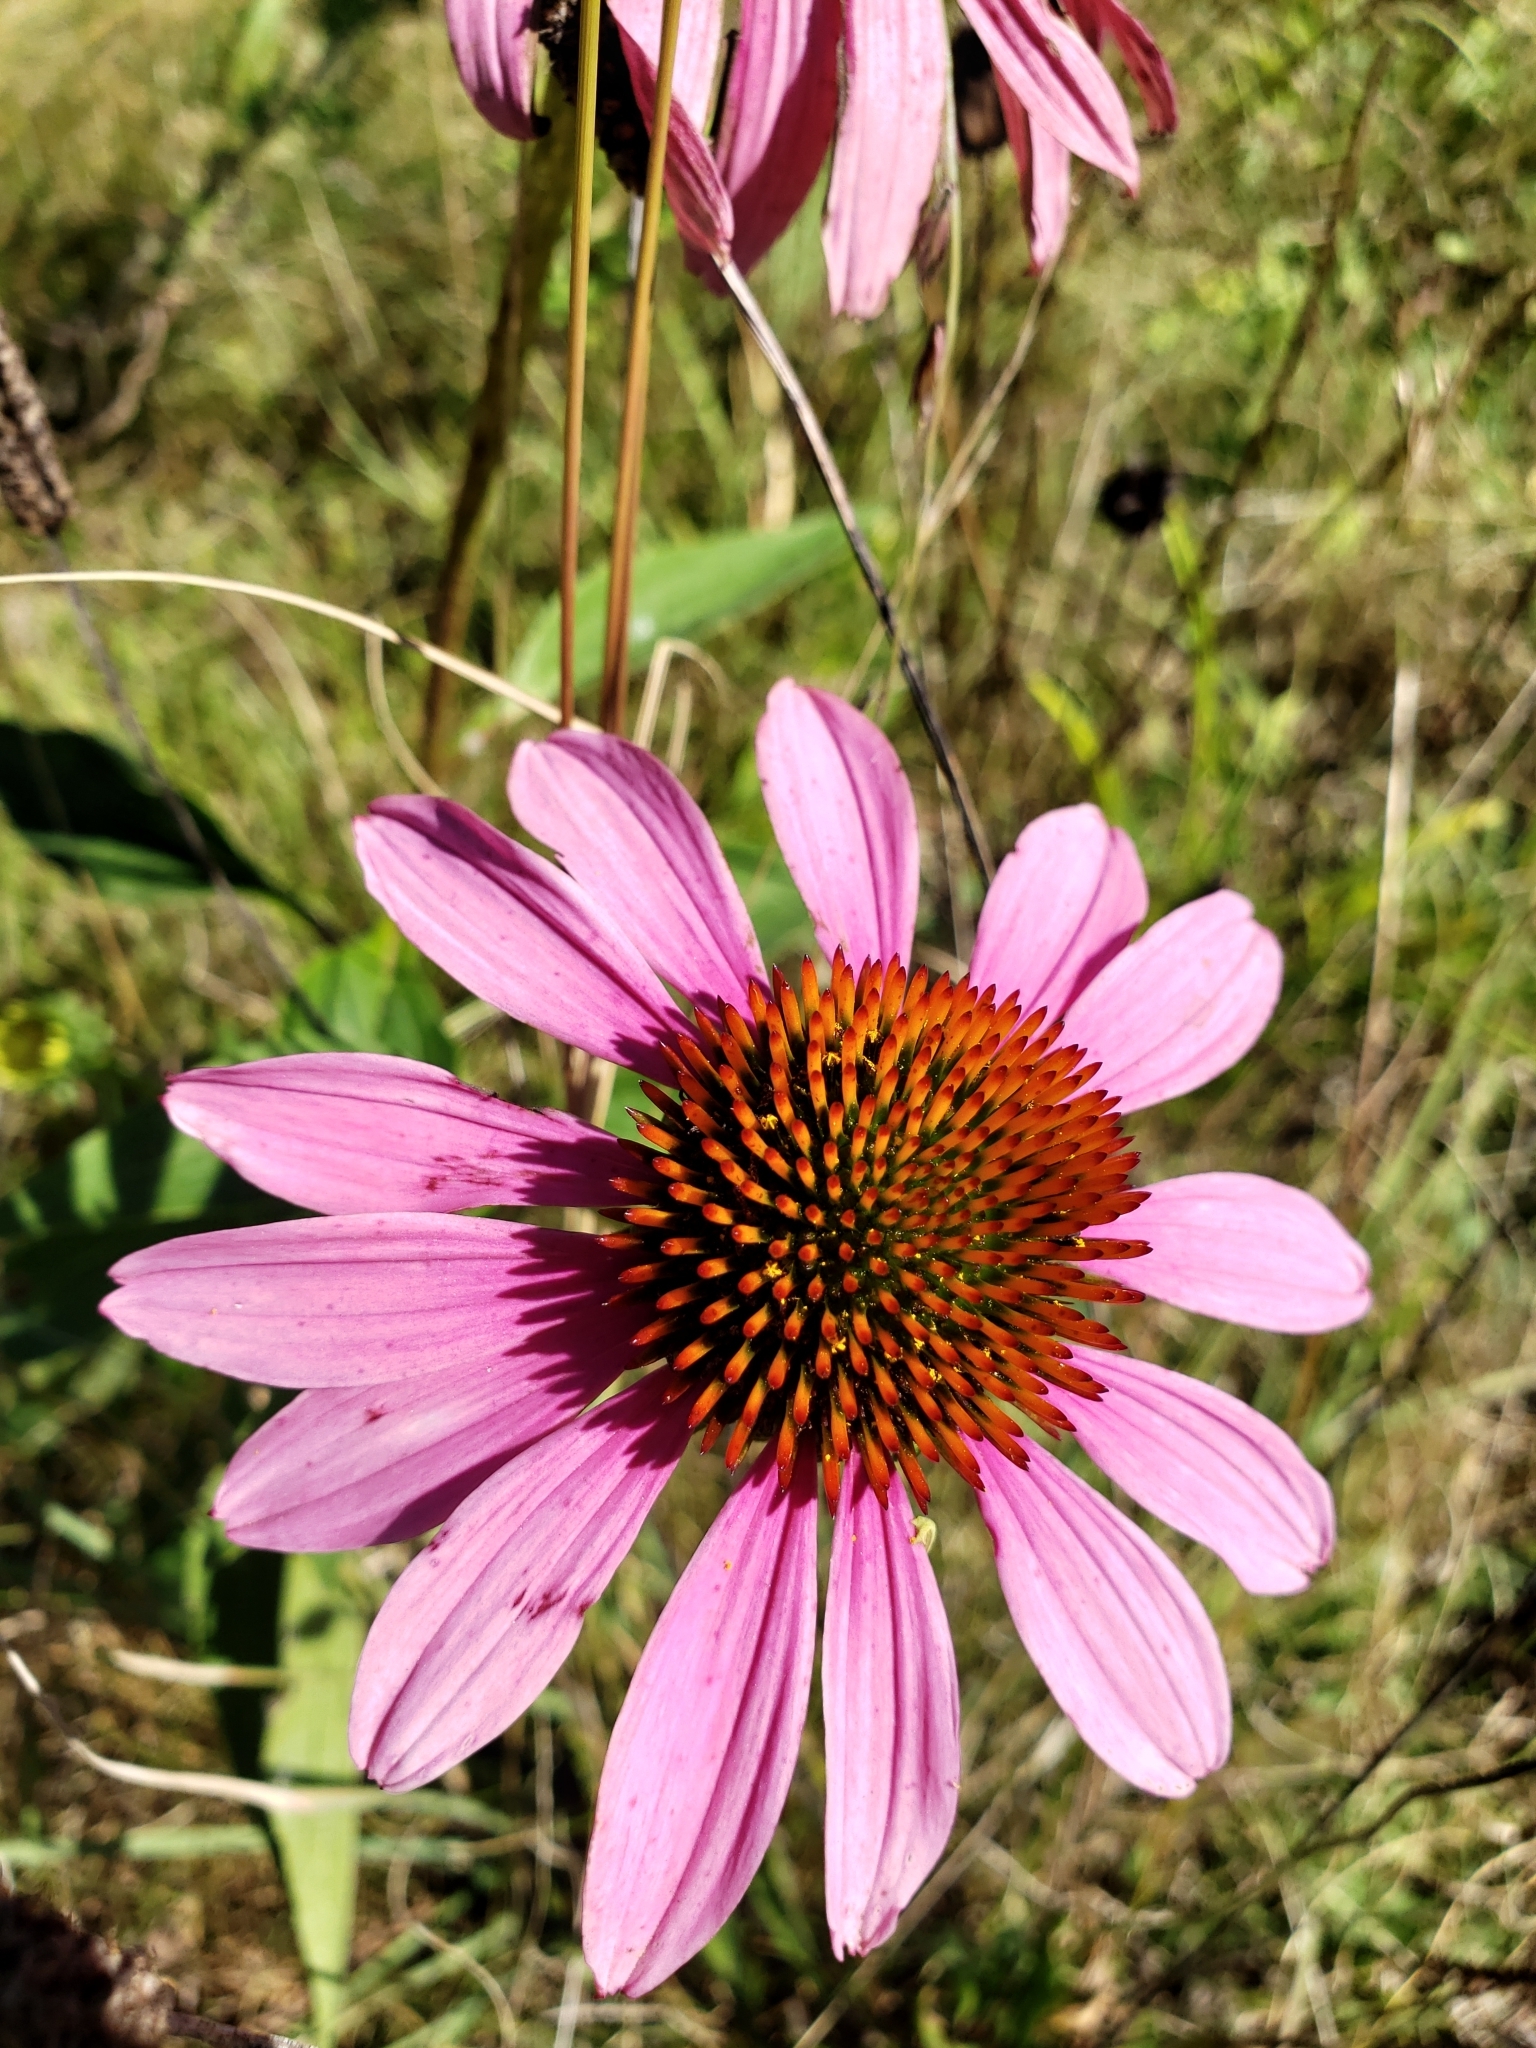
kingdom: Plantae
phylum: Tracheophyta
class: Magnoliopsida
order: Asterales
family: Asteraceae
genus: Echinacea
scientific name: Echinacea purpurea
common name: Broad-leaved purple coneflower
